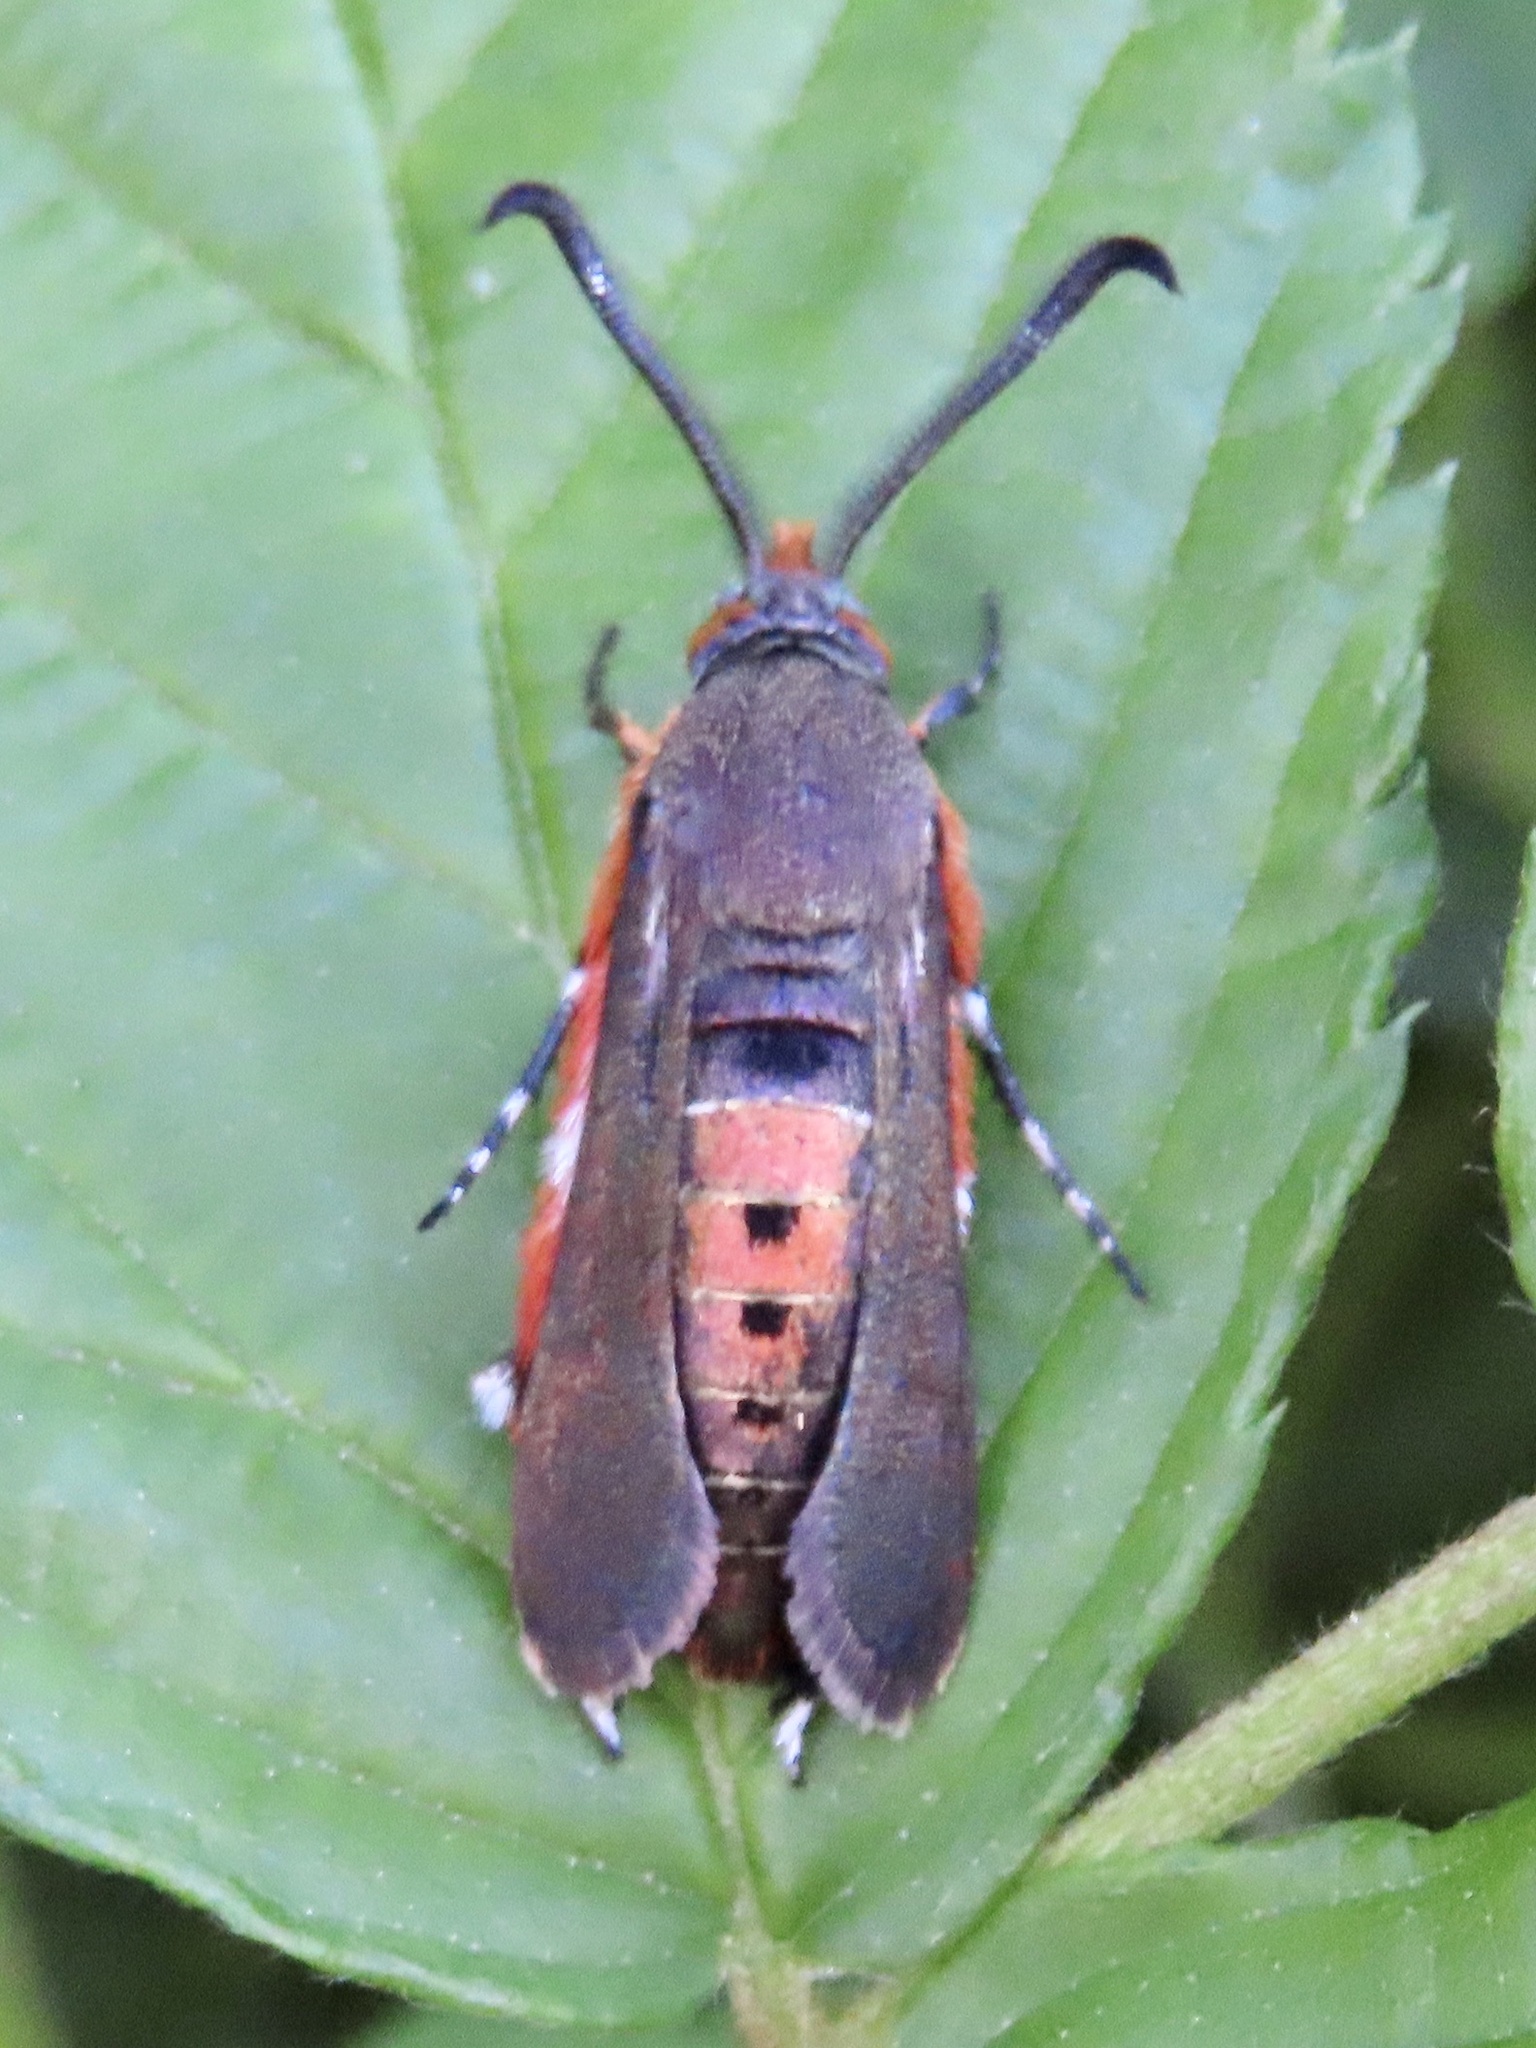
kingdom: Animalia
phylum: Arthropoda
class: Insecta
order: Lepidoptera
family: Sesiidae
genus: Eichlinia
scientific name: Eichlinia cucurbitae
